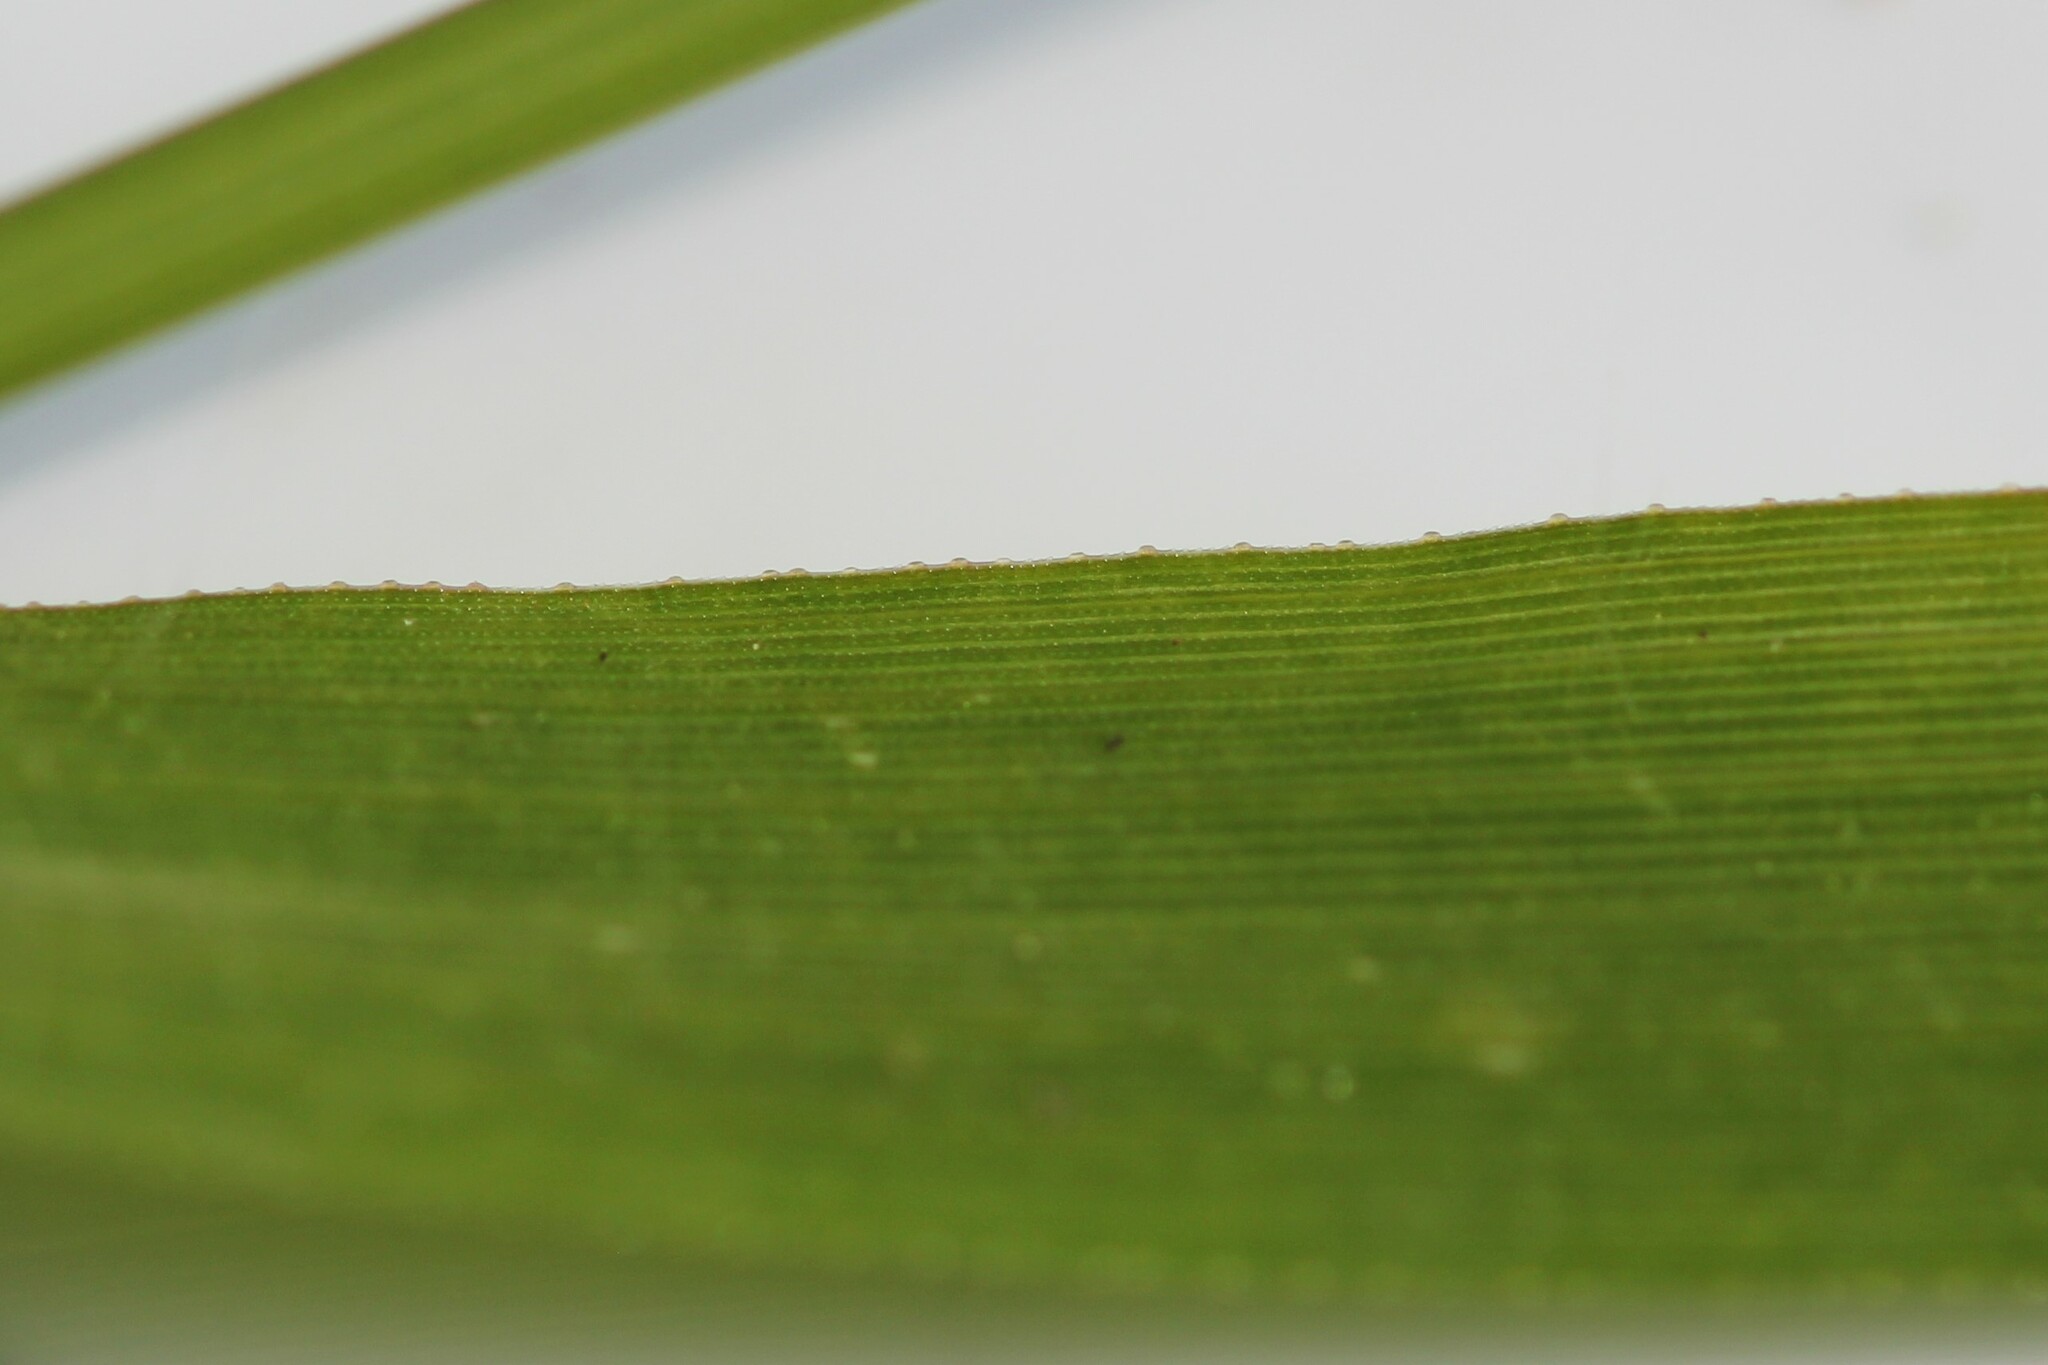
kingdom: Plantae
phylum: Tracheophyta
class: Liliopsida
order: Poales
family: Poaceae
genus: Eragrostis
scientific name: Eragrostis minor
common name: Small love-grass
